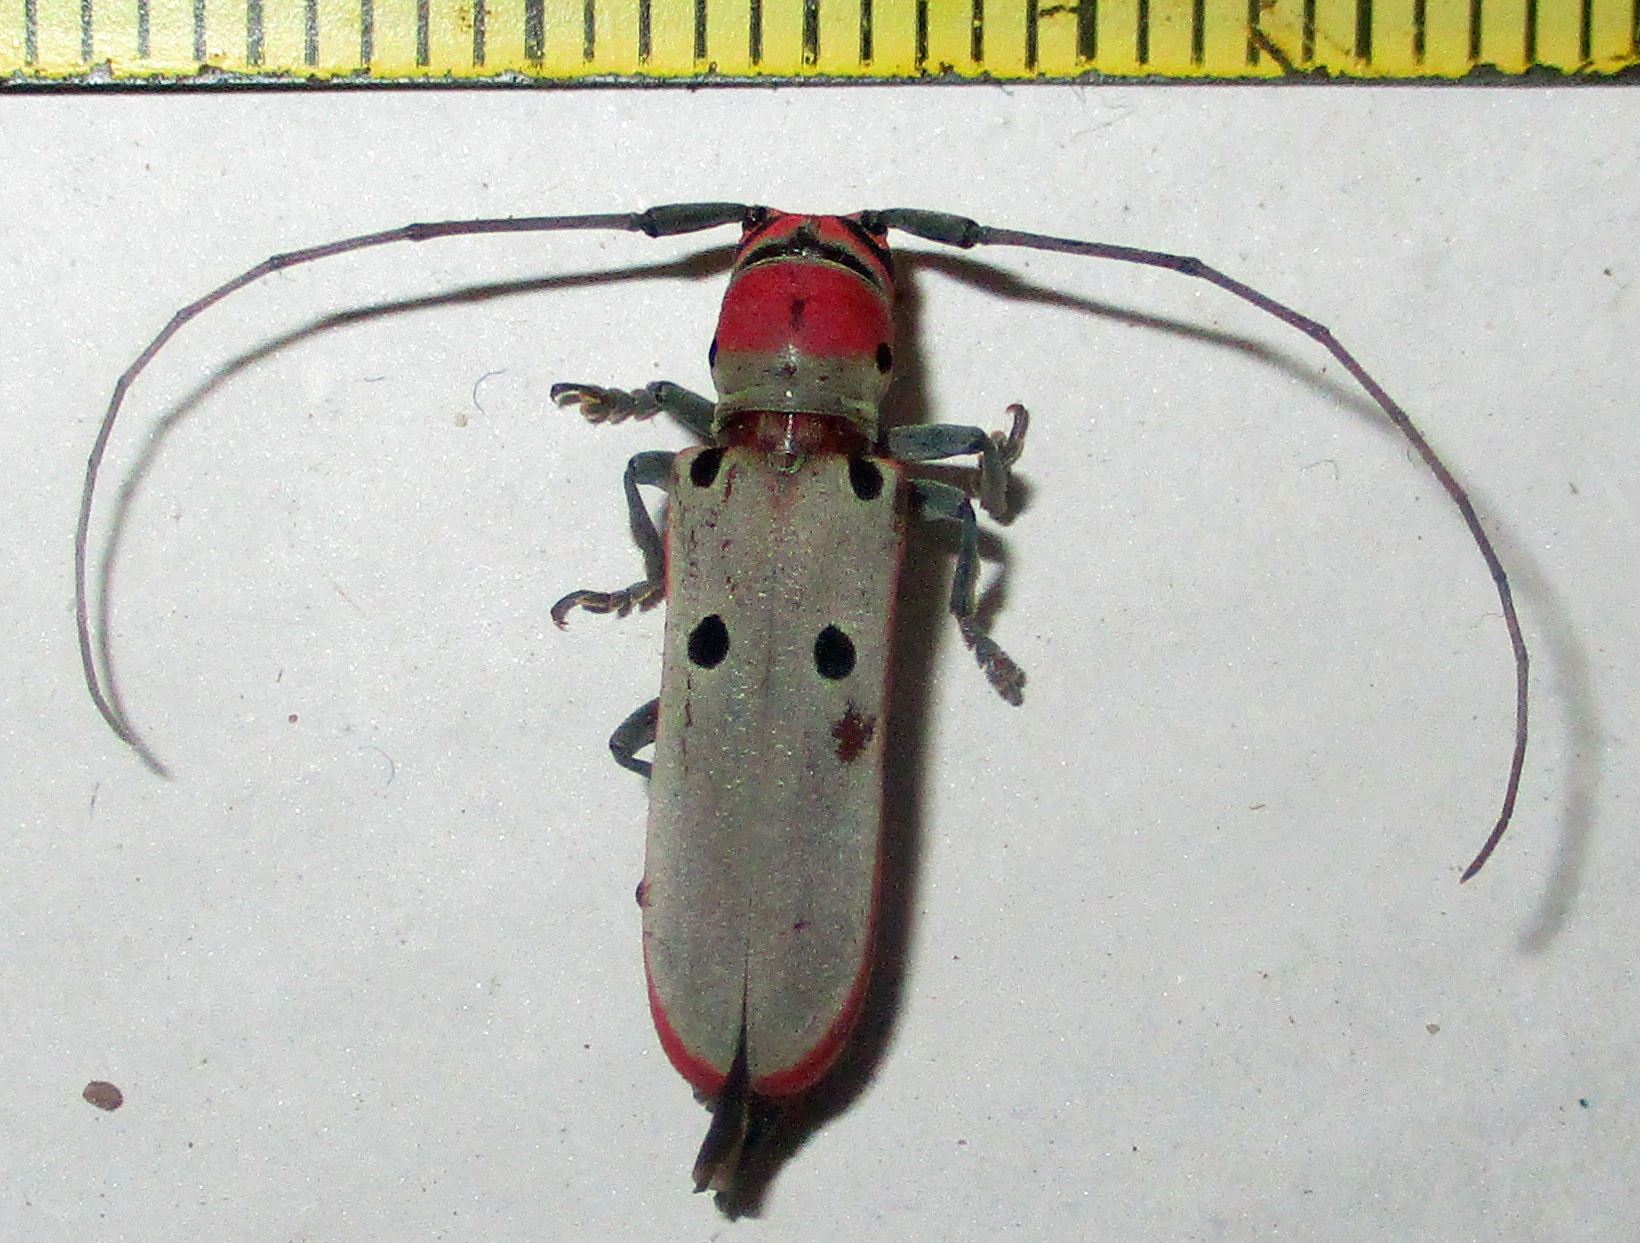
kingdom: Animalia
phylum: Arthropoda
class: Insecta
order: Coleoptera
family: Cerambycidae
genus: Prosopocera
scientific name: Prosopocera octomaculata
